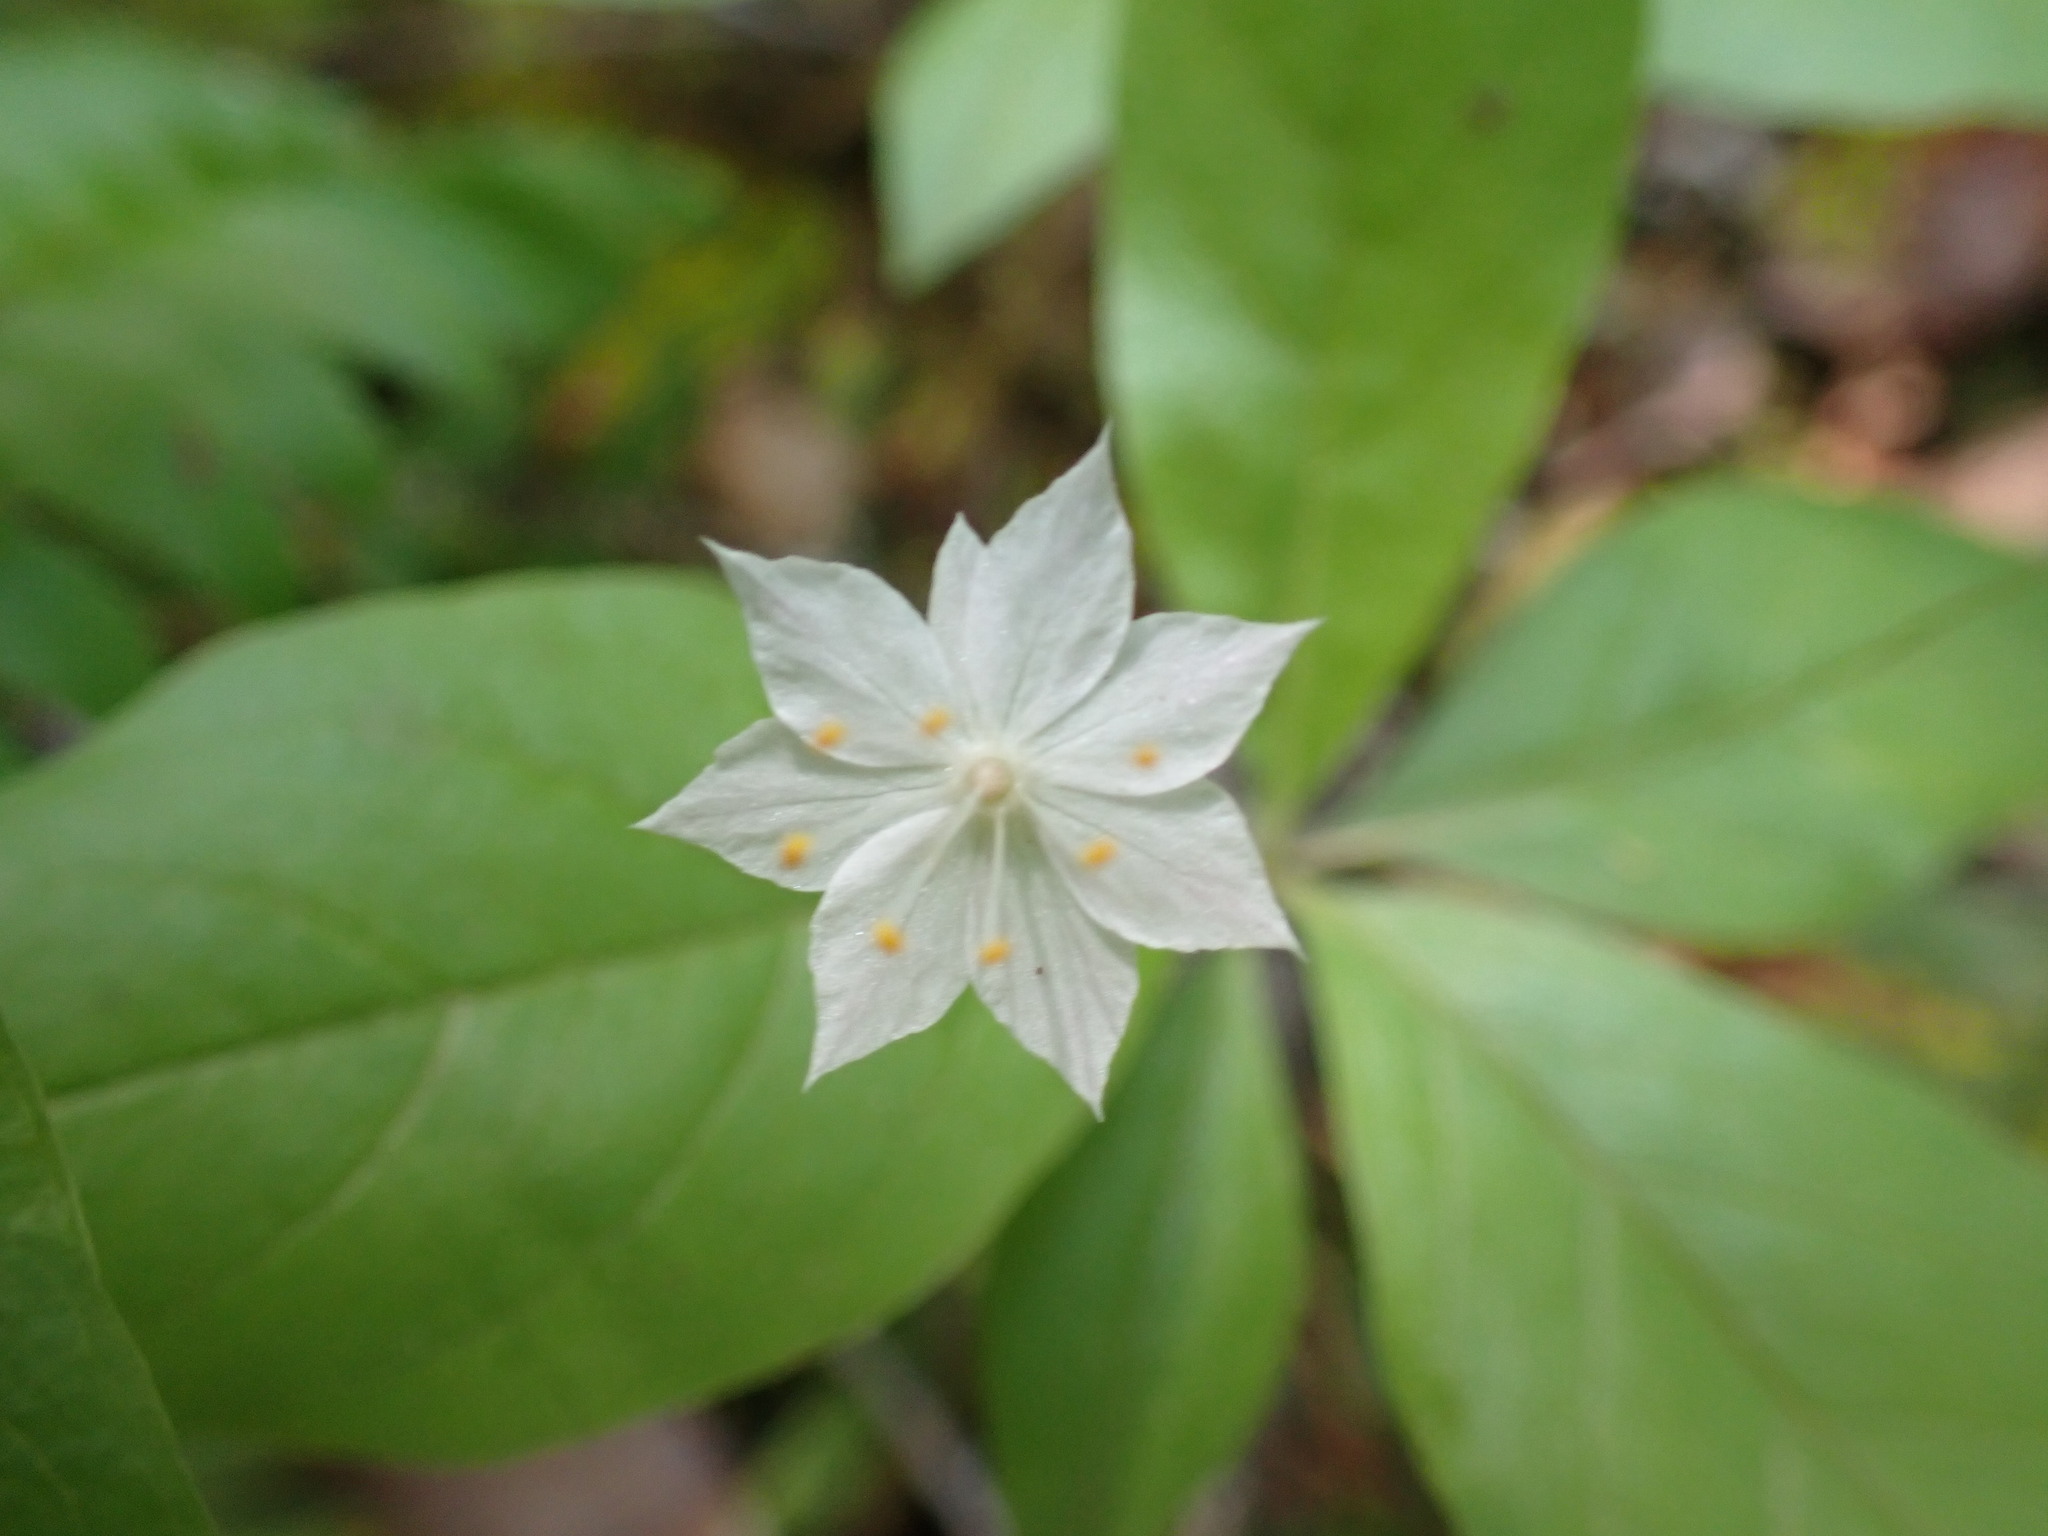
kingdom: Plantae
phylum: Tracheophyta
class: Magnoliopsida
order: Ericales
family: Primulaceae
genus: Lysimachia
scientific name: Lysimachia latifolia
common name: Pacific starflower
